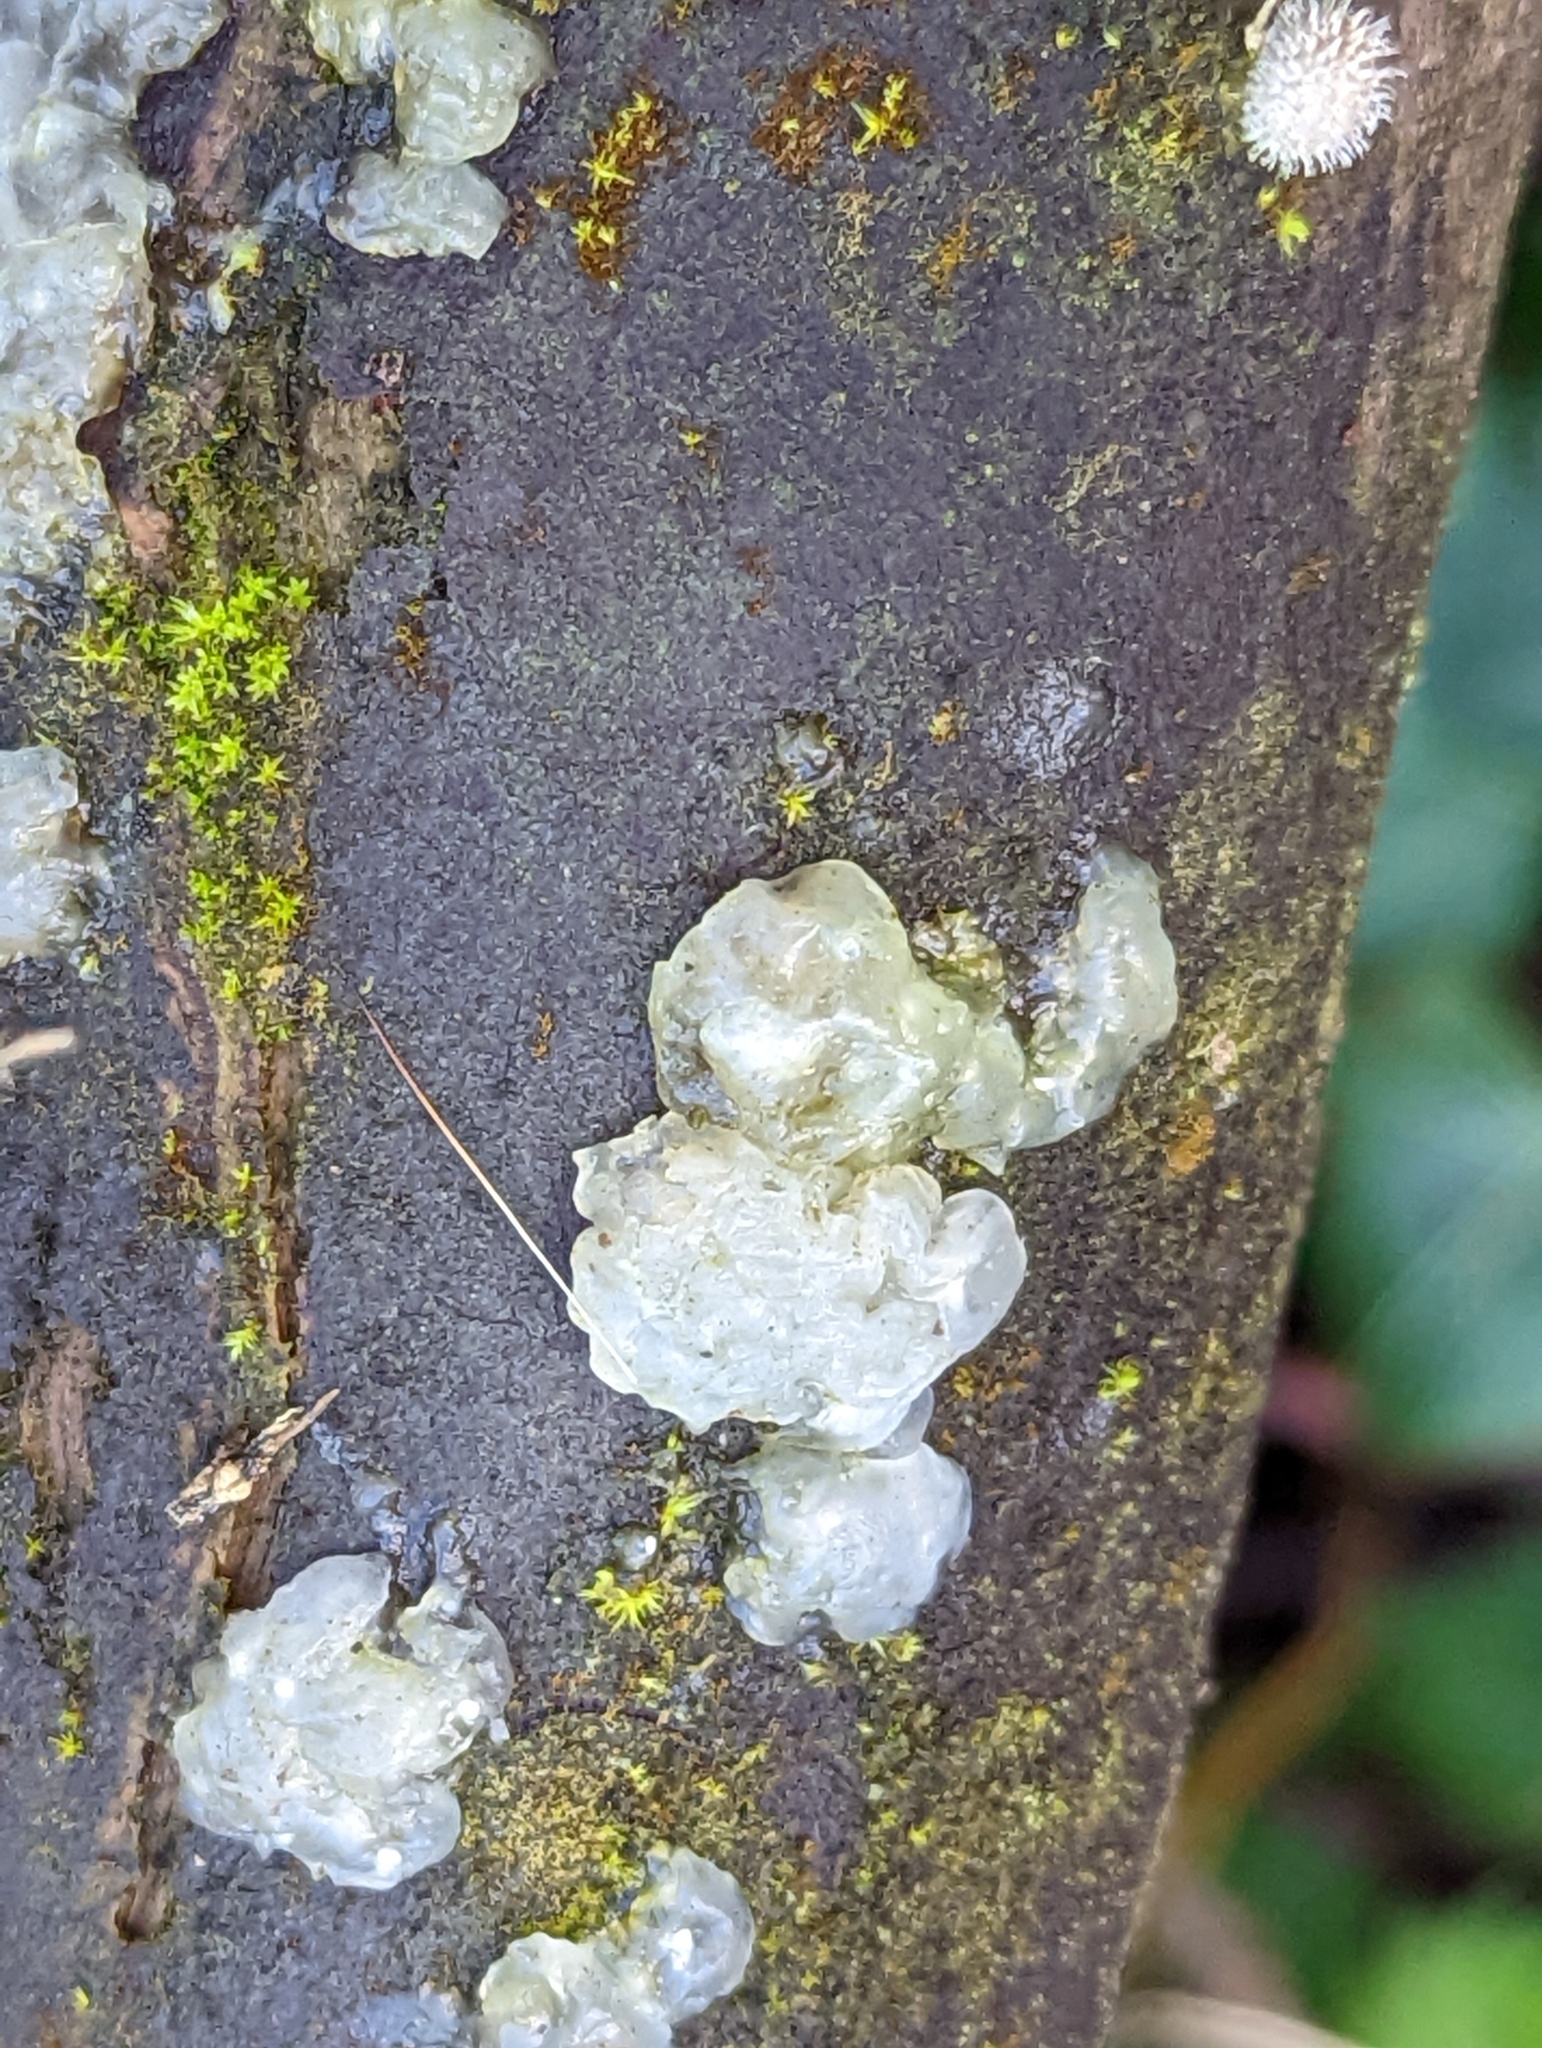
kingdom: Fungi
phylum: Basidiomycota
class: Agaricomycetes
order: Auriculariales
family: Hyaloriaceae
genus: Myxarium
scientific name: Myxarium nucleatum
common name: Crystal brain fungus
